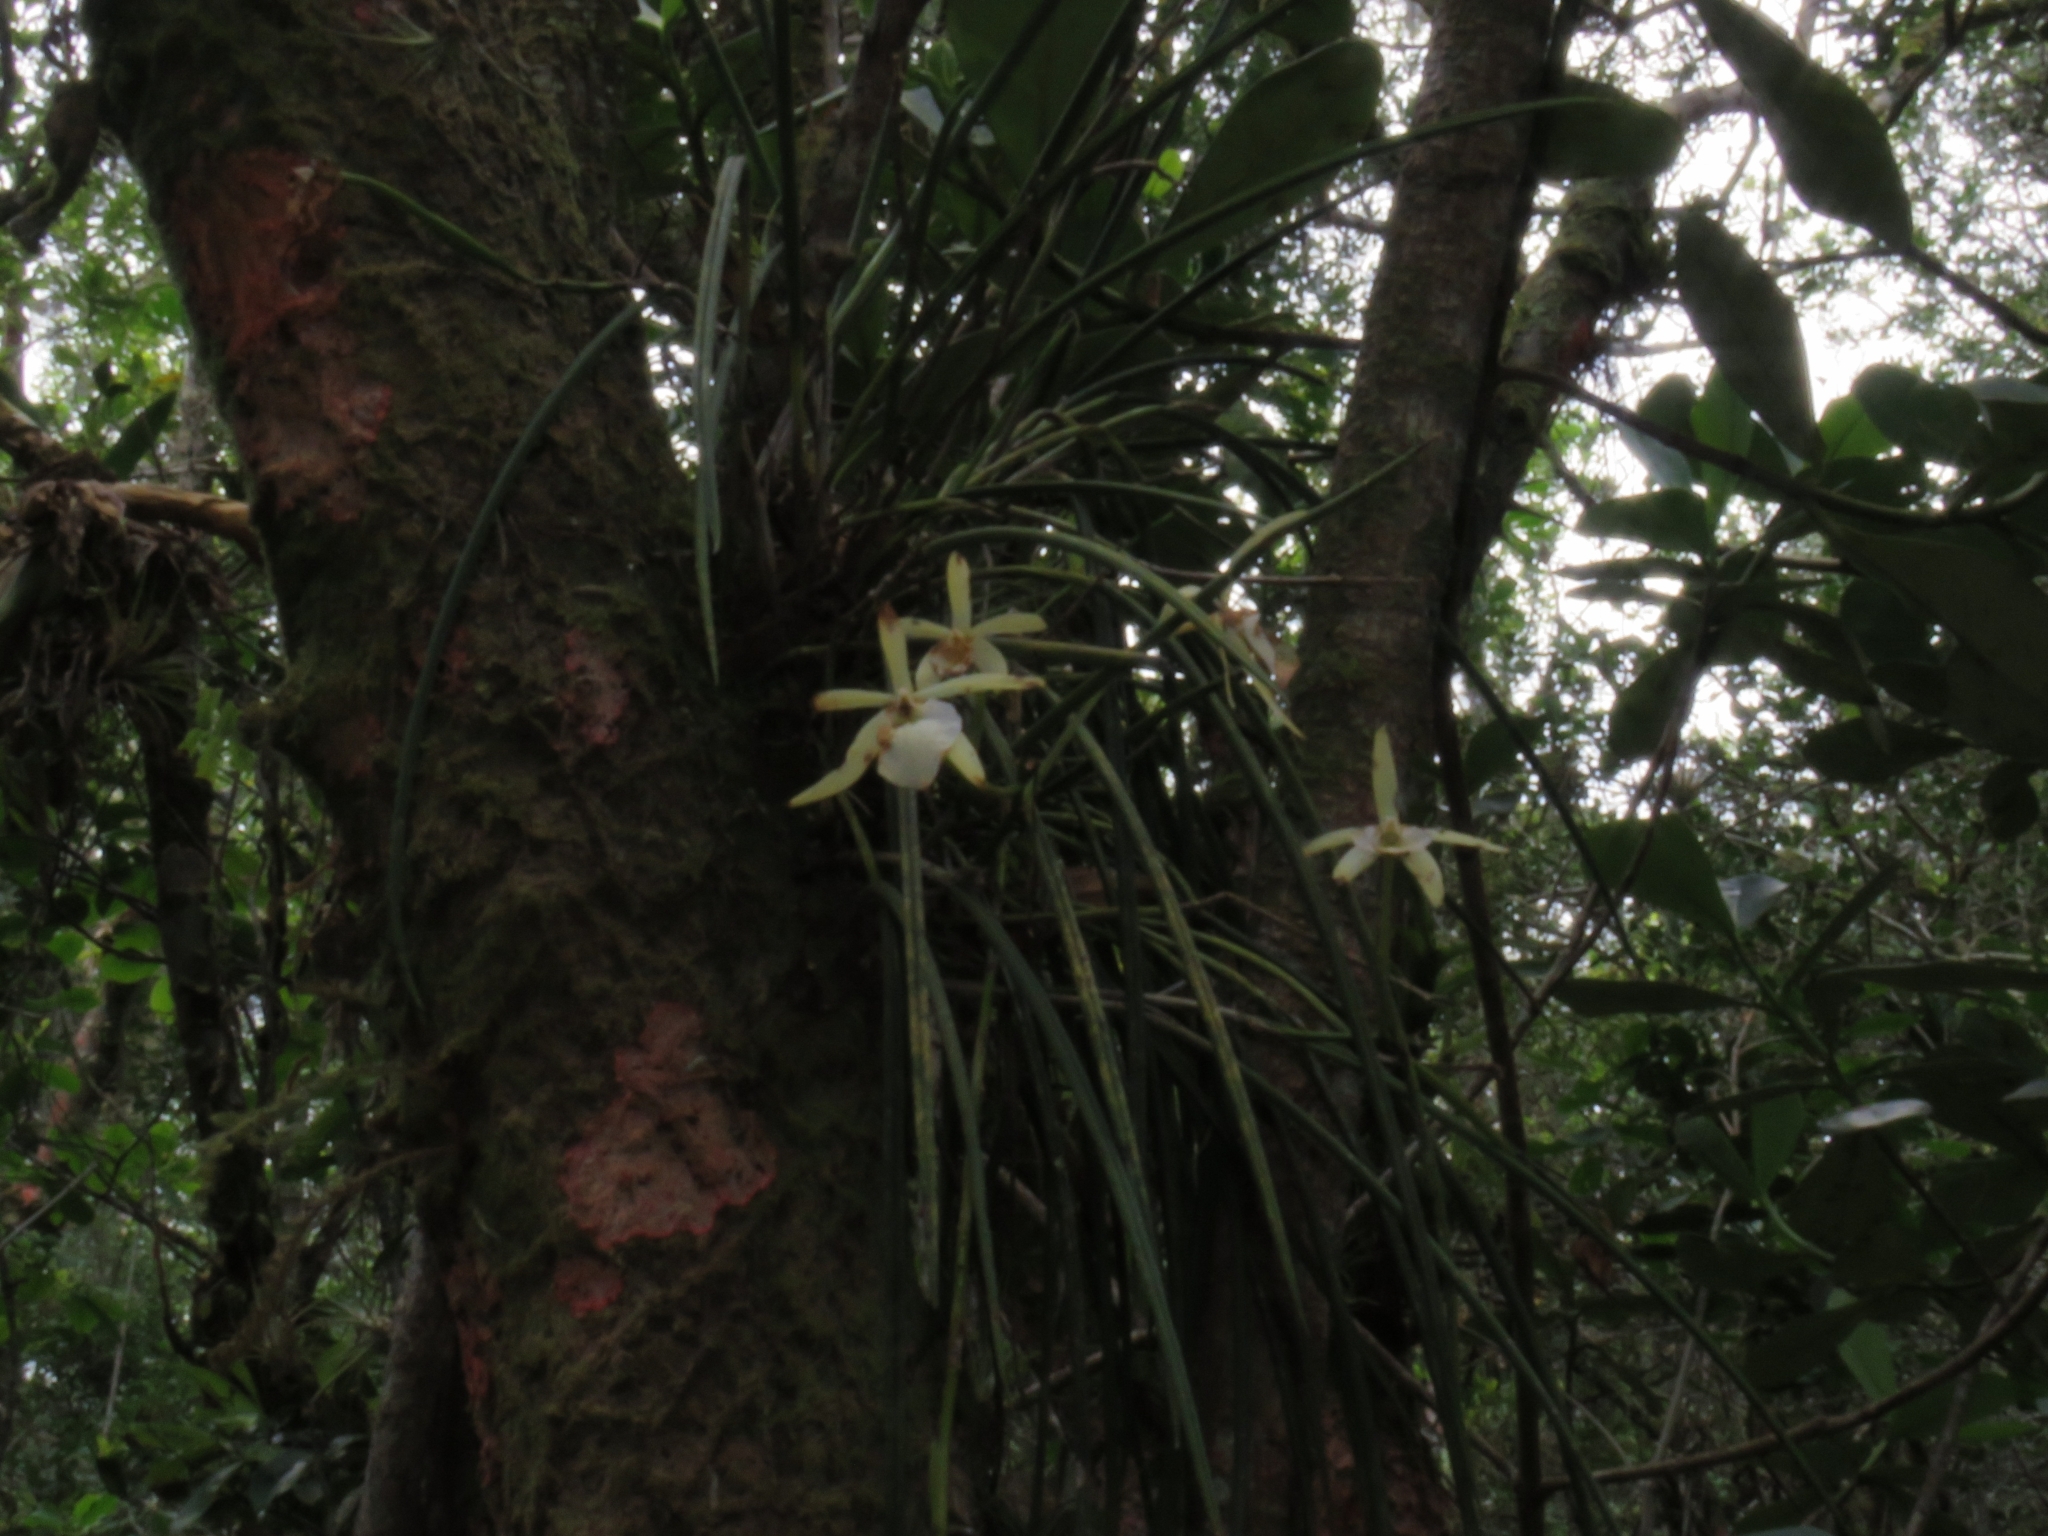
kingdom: Plantae
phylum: Tracheophyta
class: Liliopsida
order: Asparagales
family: Orchidaceae
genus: Brassavola
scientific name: Brassavola tuberculata
